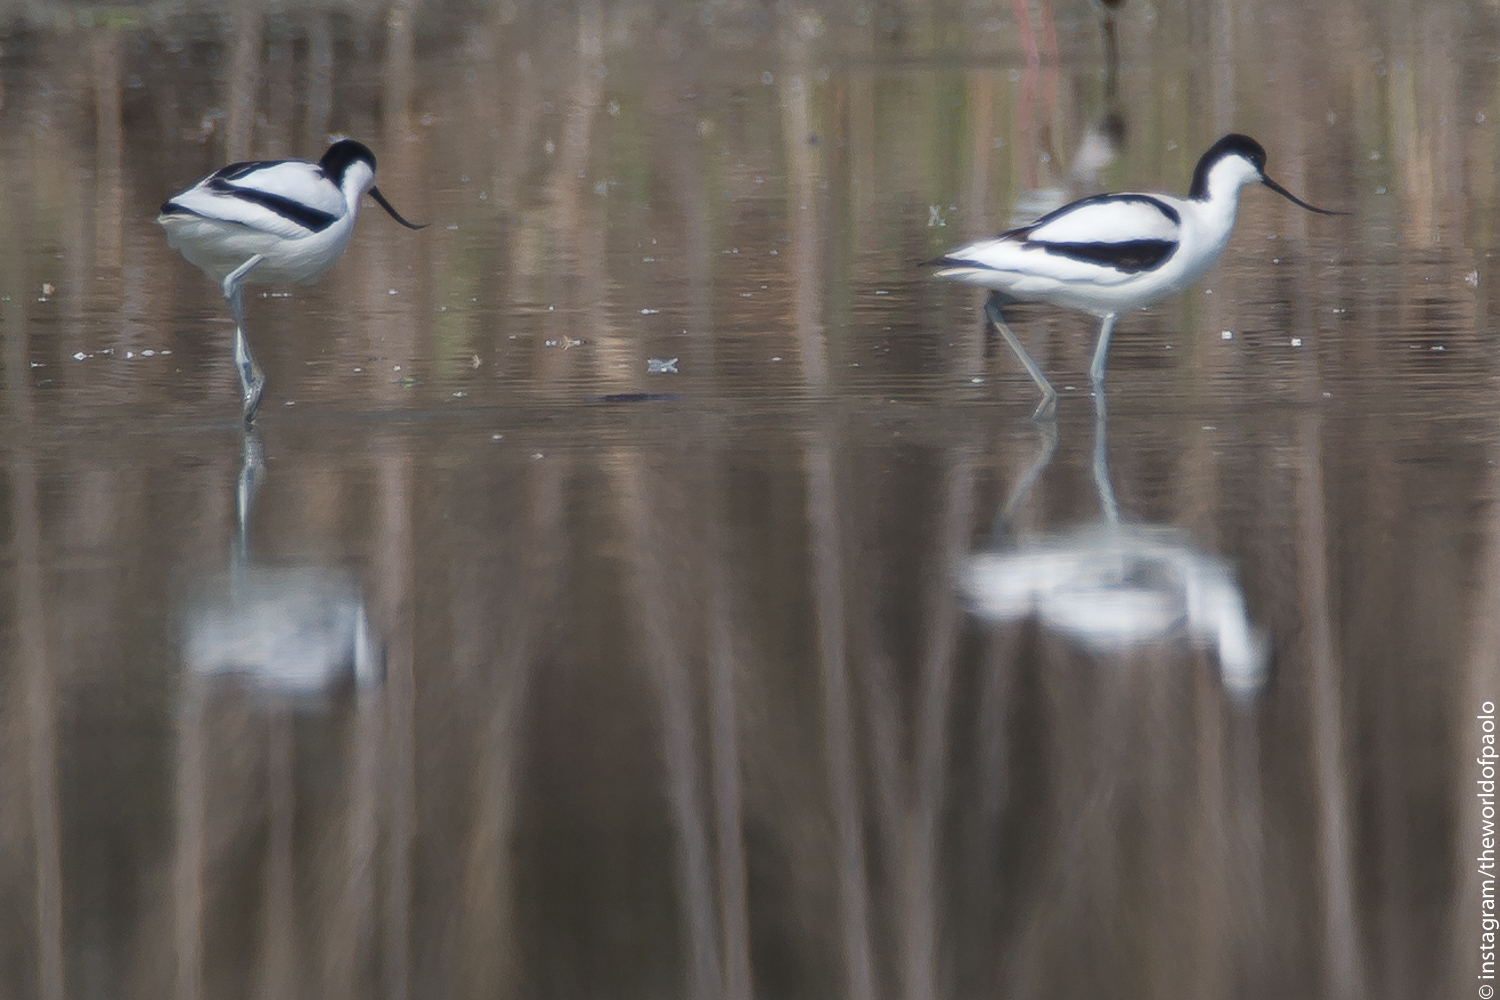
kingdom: Animalia
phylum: Chordata
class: Aves
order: Charadriiformes
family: Recurvirostridae
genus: Recurvirostra
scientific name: Recurvirostra avosetta
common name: Pied avocet
